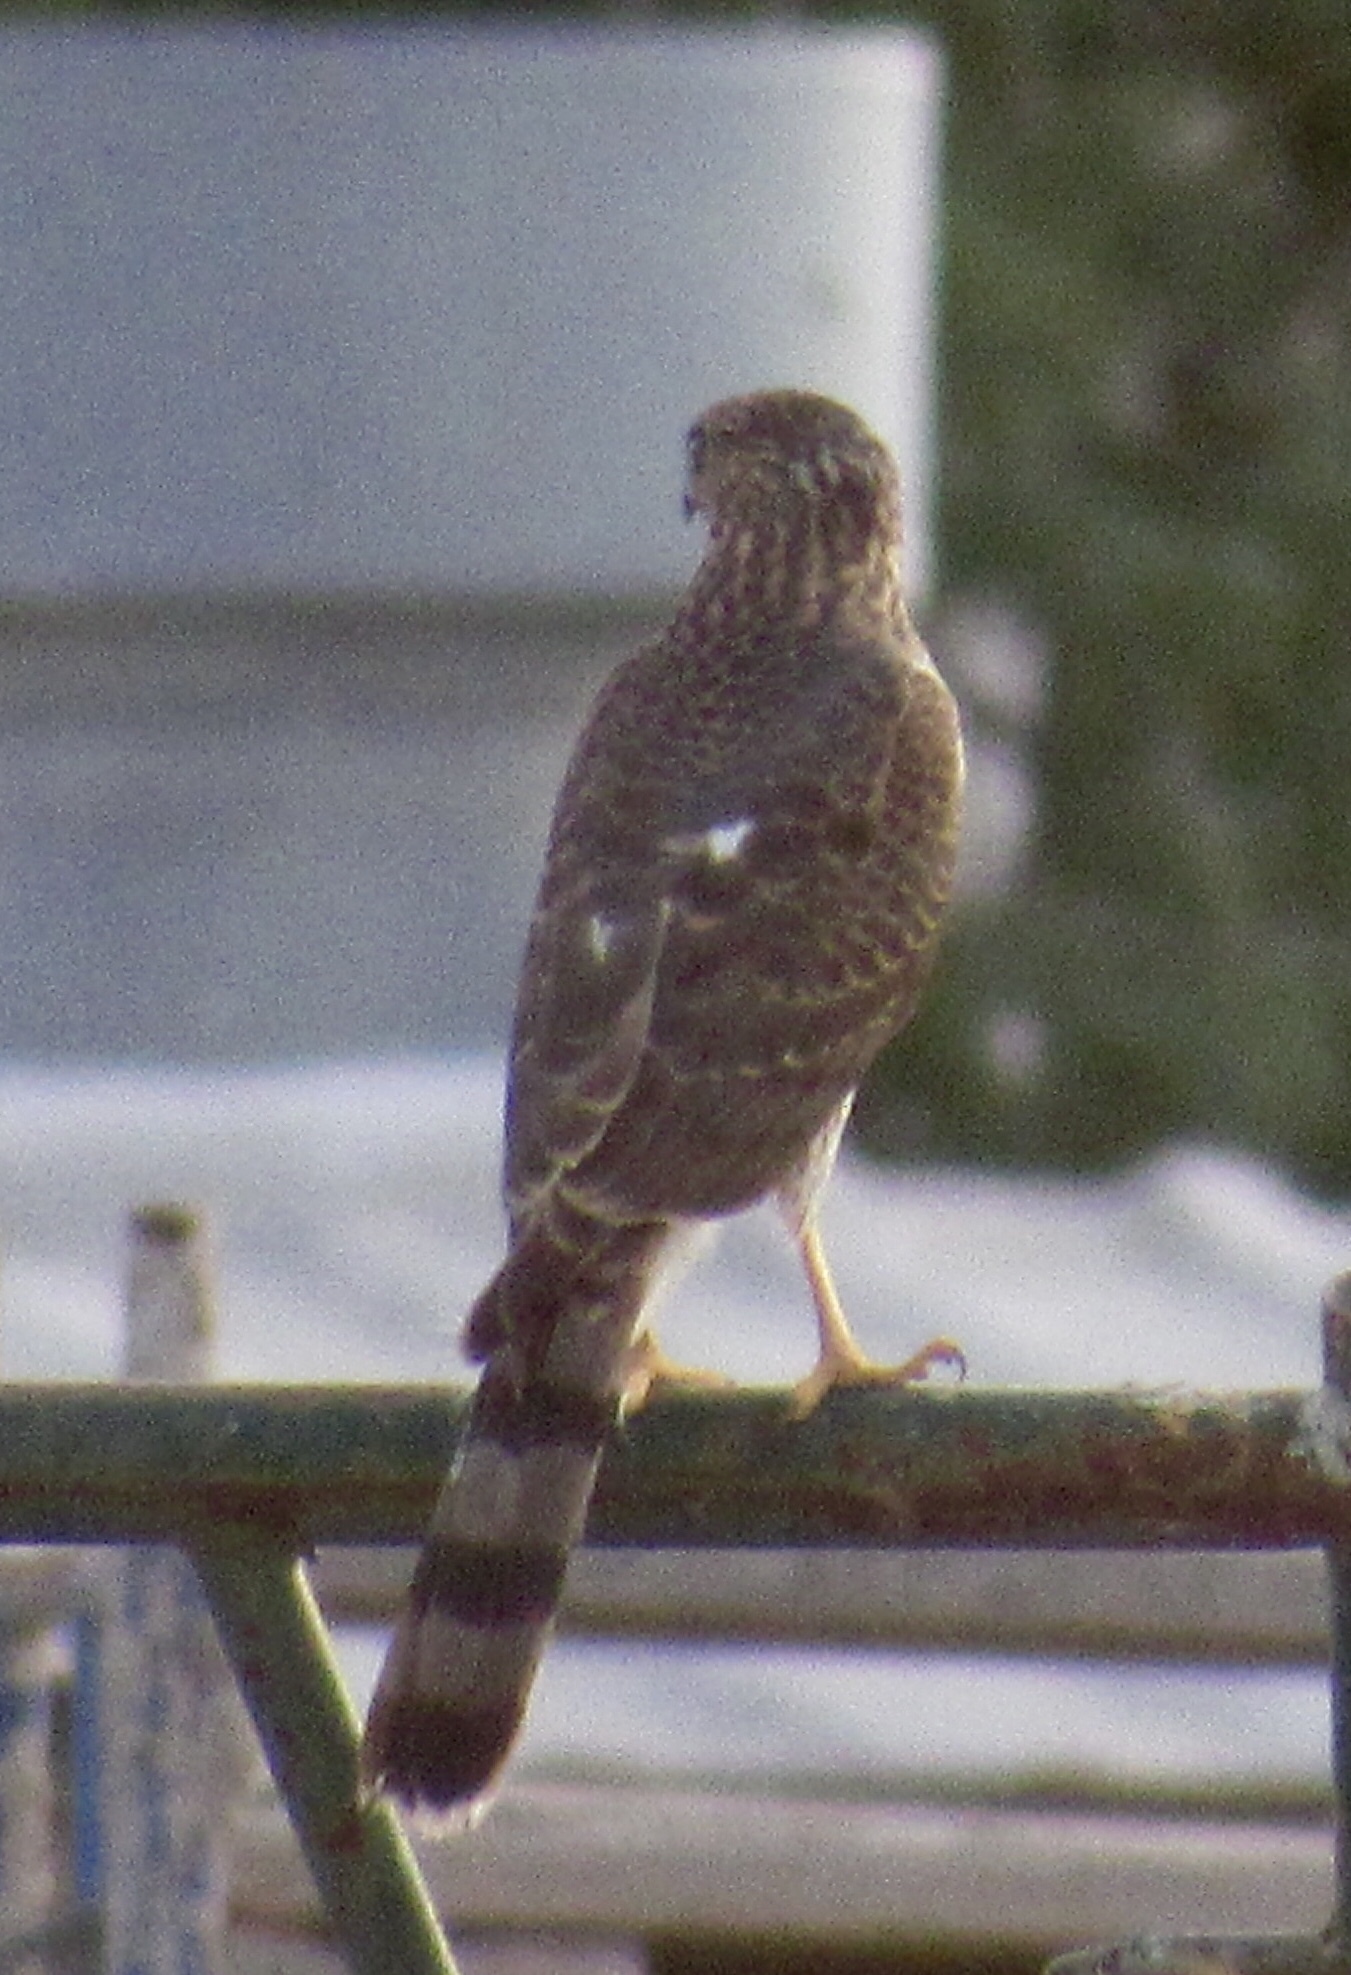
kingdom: Animalia
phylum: Chordata
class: Aves
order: Accipitriformes
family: Accipitridae
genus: Accipiter
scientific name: Accipiter cooperii
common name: Cooper's hawk
